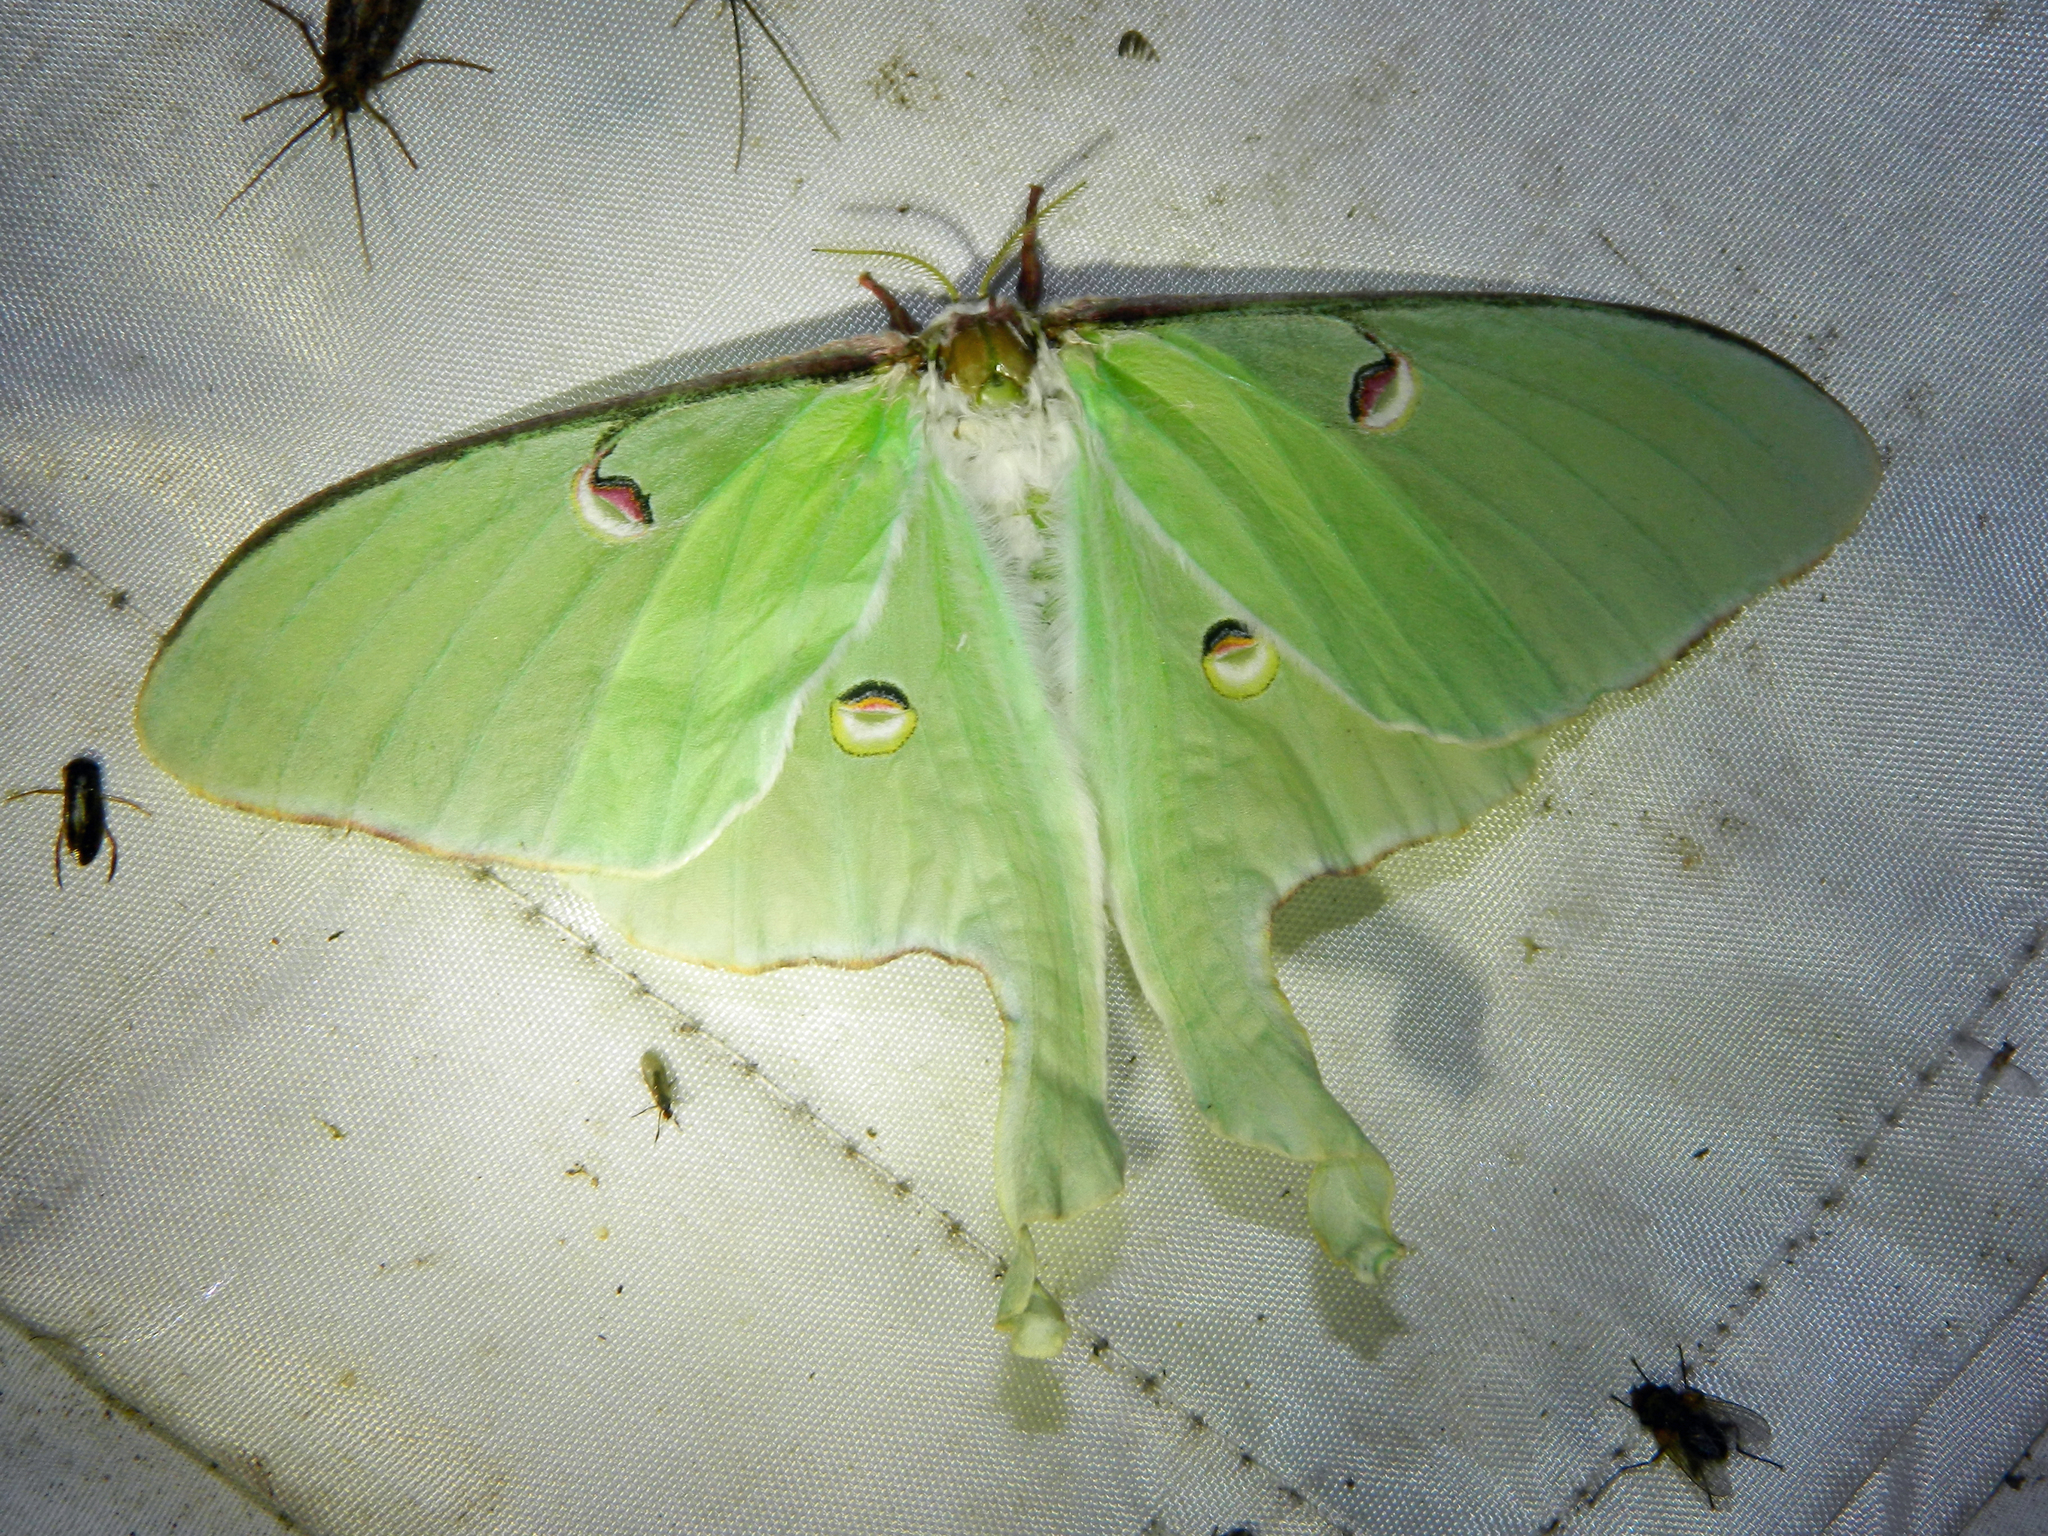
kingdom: Animalia
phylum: Arthropoda
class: Insecta
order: Lepidoptera
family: Saturniidae
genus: Actias
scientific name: Actias luna
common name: Luna moth
